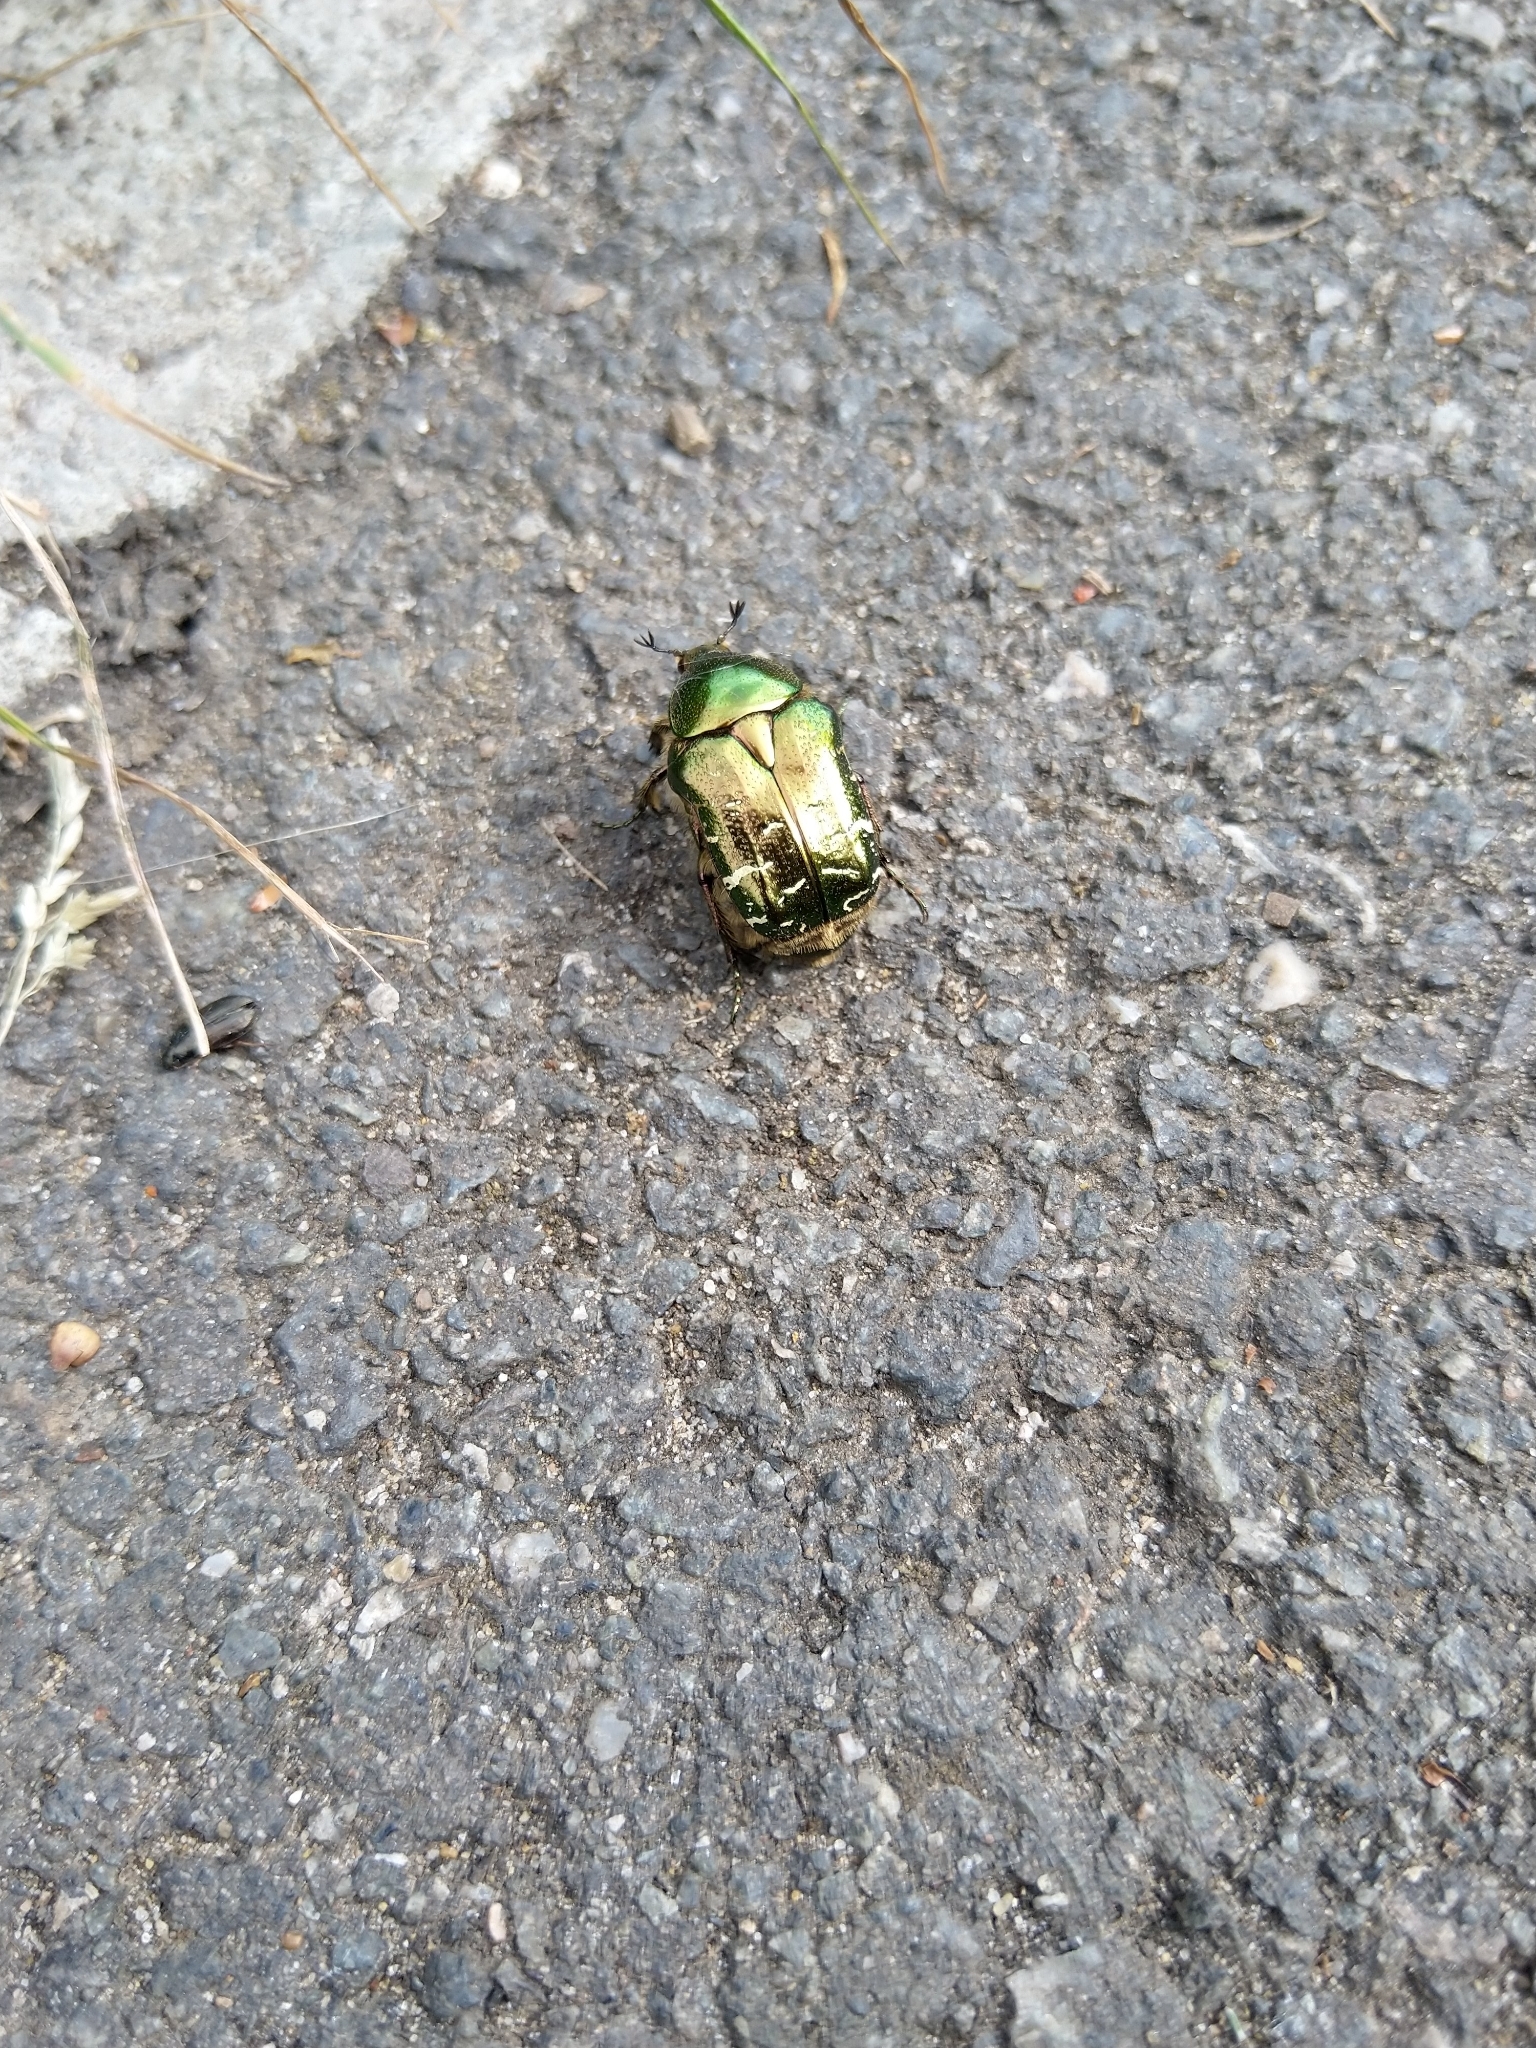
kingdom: Animalia
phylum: Arthropoda
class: Insecta
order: Coleoptera
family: Scarabaeidae
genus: Cetonia
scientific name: Cetonia aurata
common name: Rose chafer
